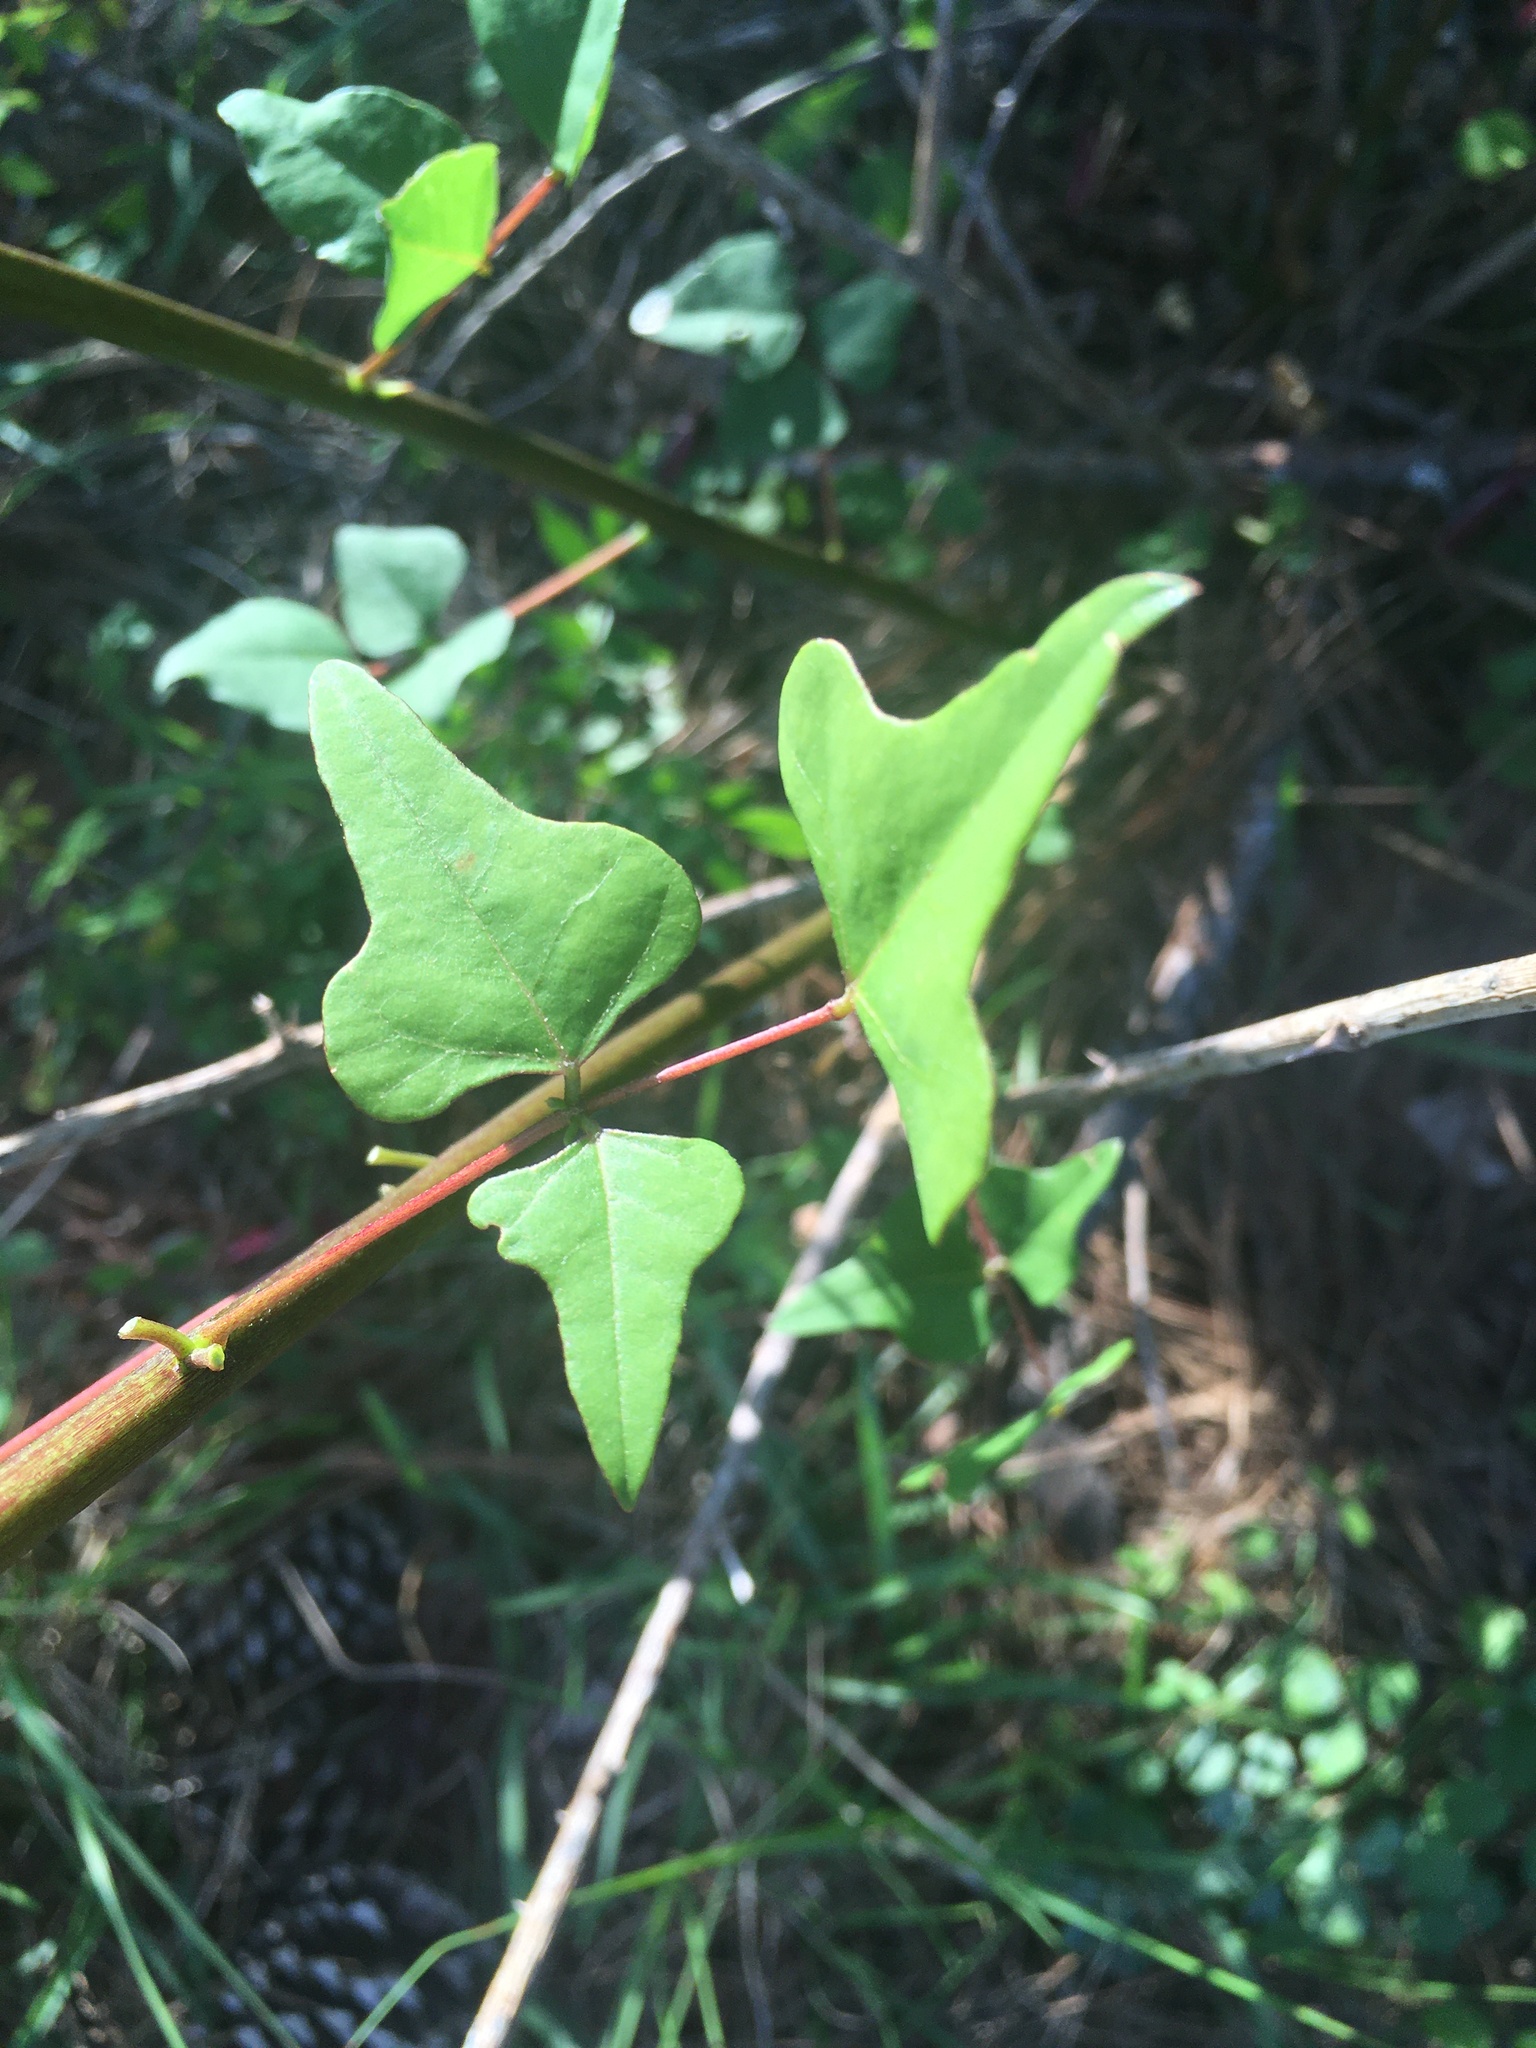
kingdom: Plantae
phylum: Tracheophyta
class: Magnoliopsida
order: Fabales
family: Fabaceae
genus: Erythrina
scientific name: Erythrina herbacea
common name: Coral-bean
